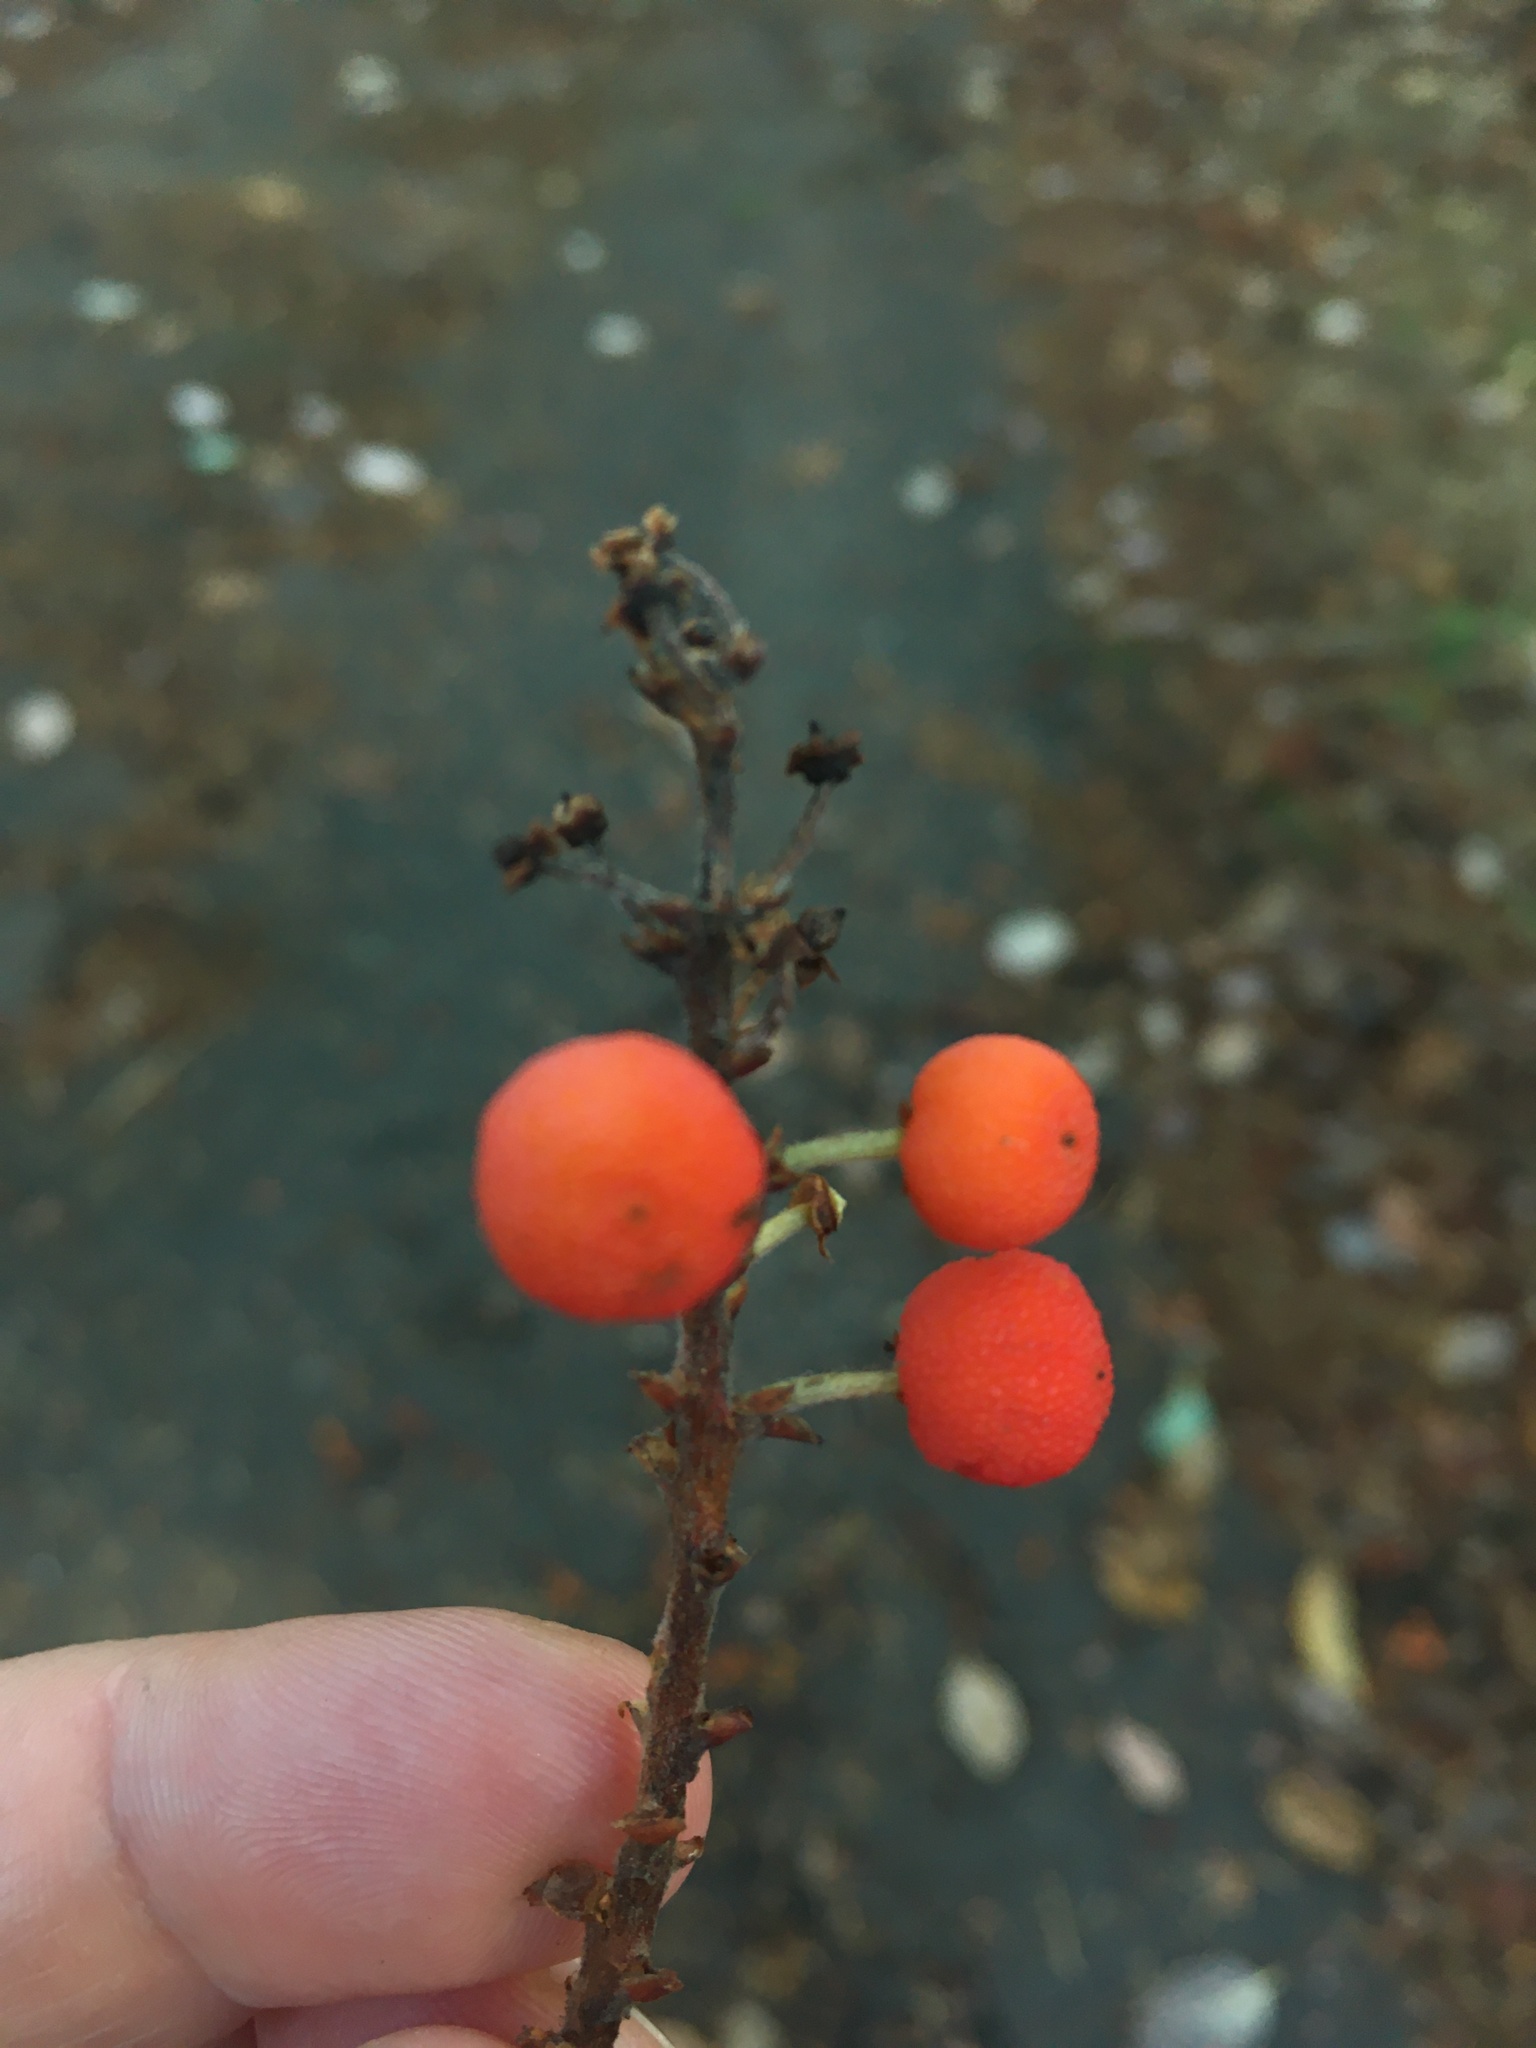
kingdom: Plantae
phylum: Tracheophyta
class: Magnoliopsida
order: Ericales
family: Ericaceae
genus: Arbutus
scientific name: Arbutus menziesii
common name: Pacific madrone
